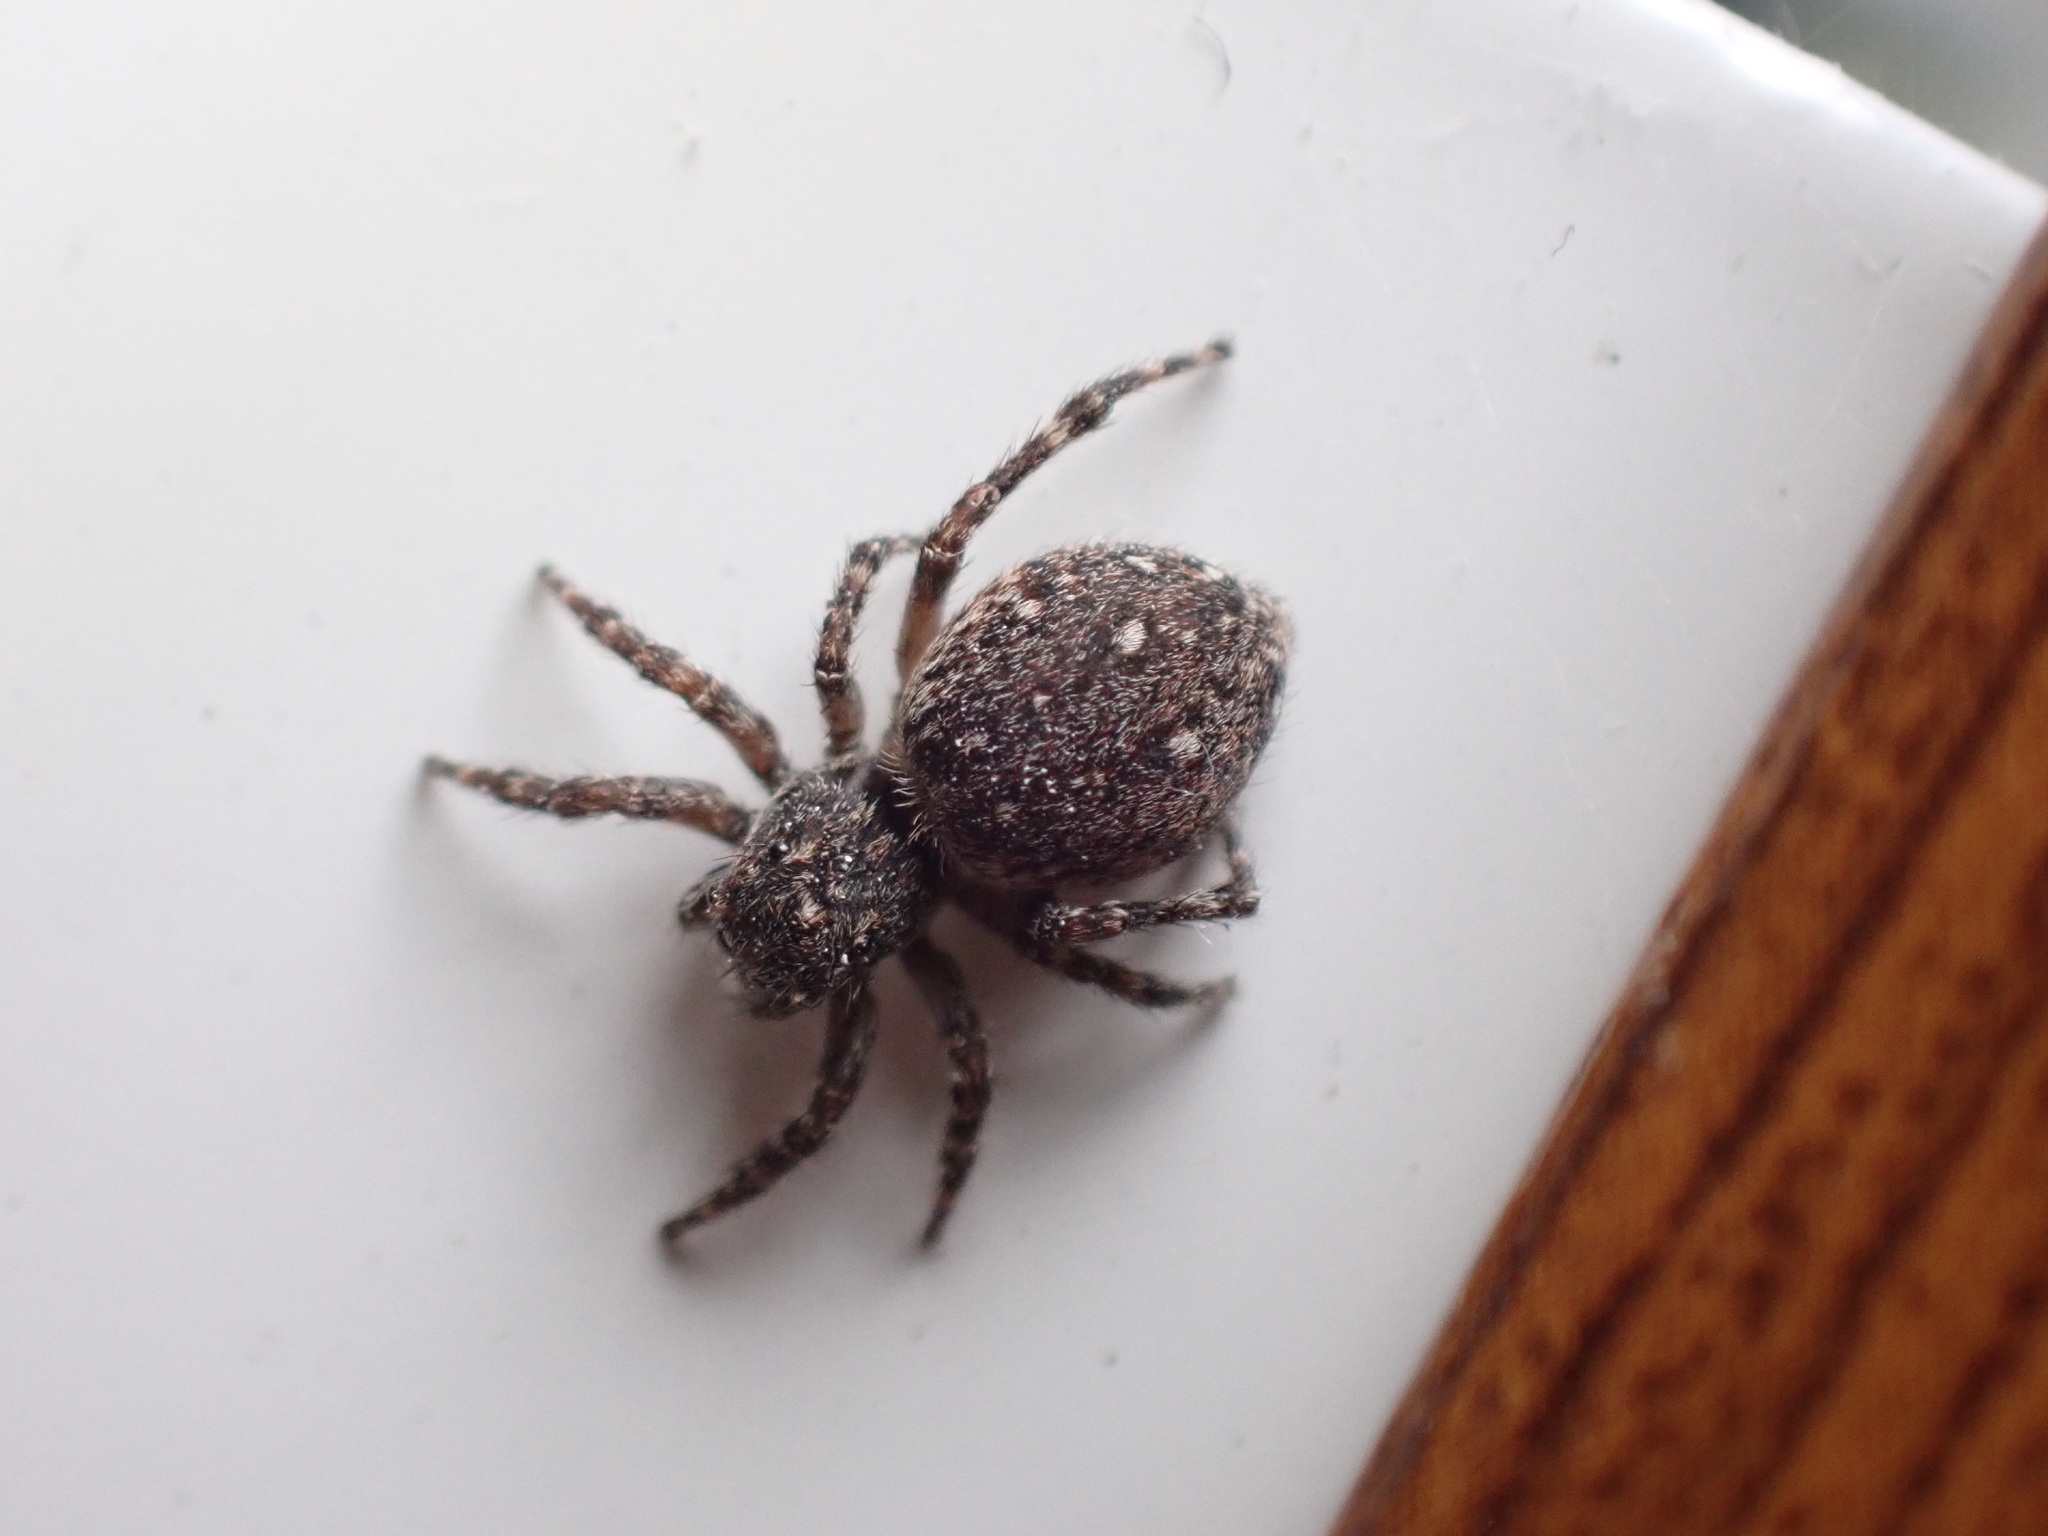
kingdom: Animalia
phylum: Arthropoda
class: Arachnida
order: Araneae
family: Salticidae
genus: Attulus
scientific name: Attulus pubescens
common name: Jumping spider
